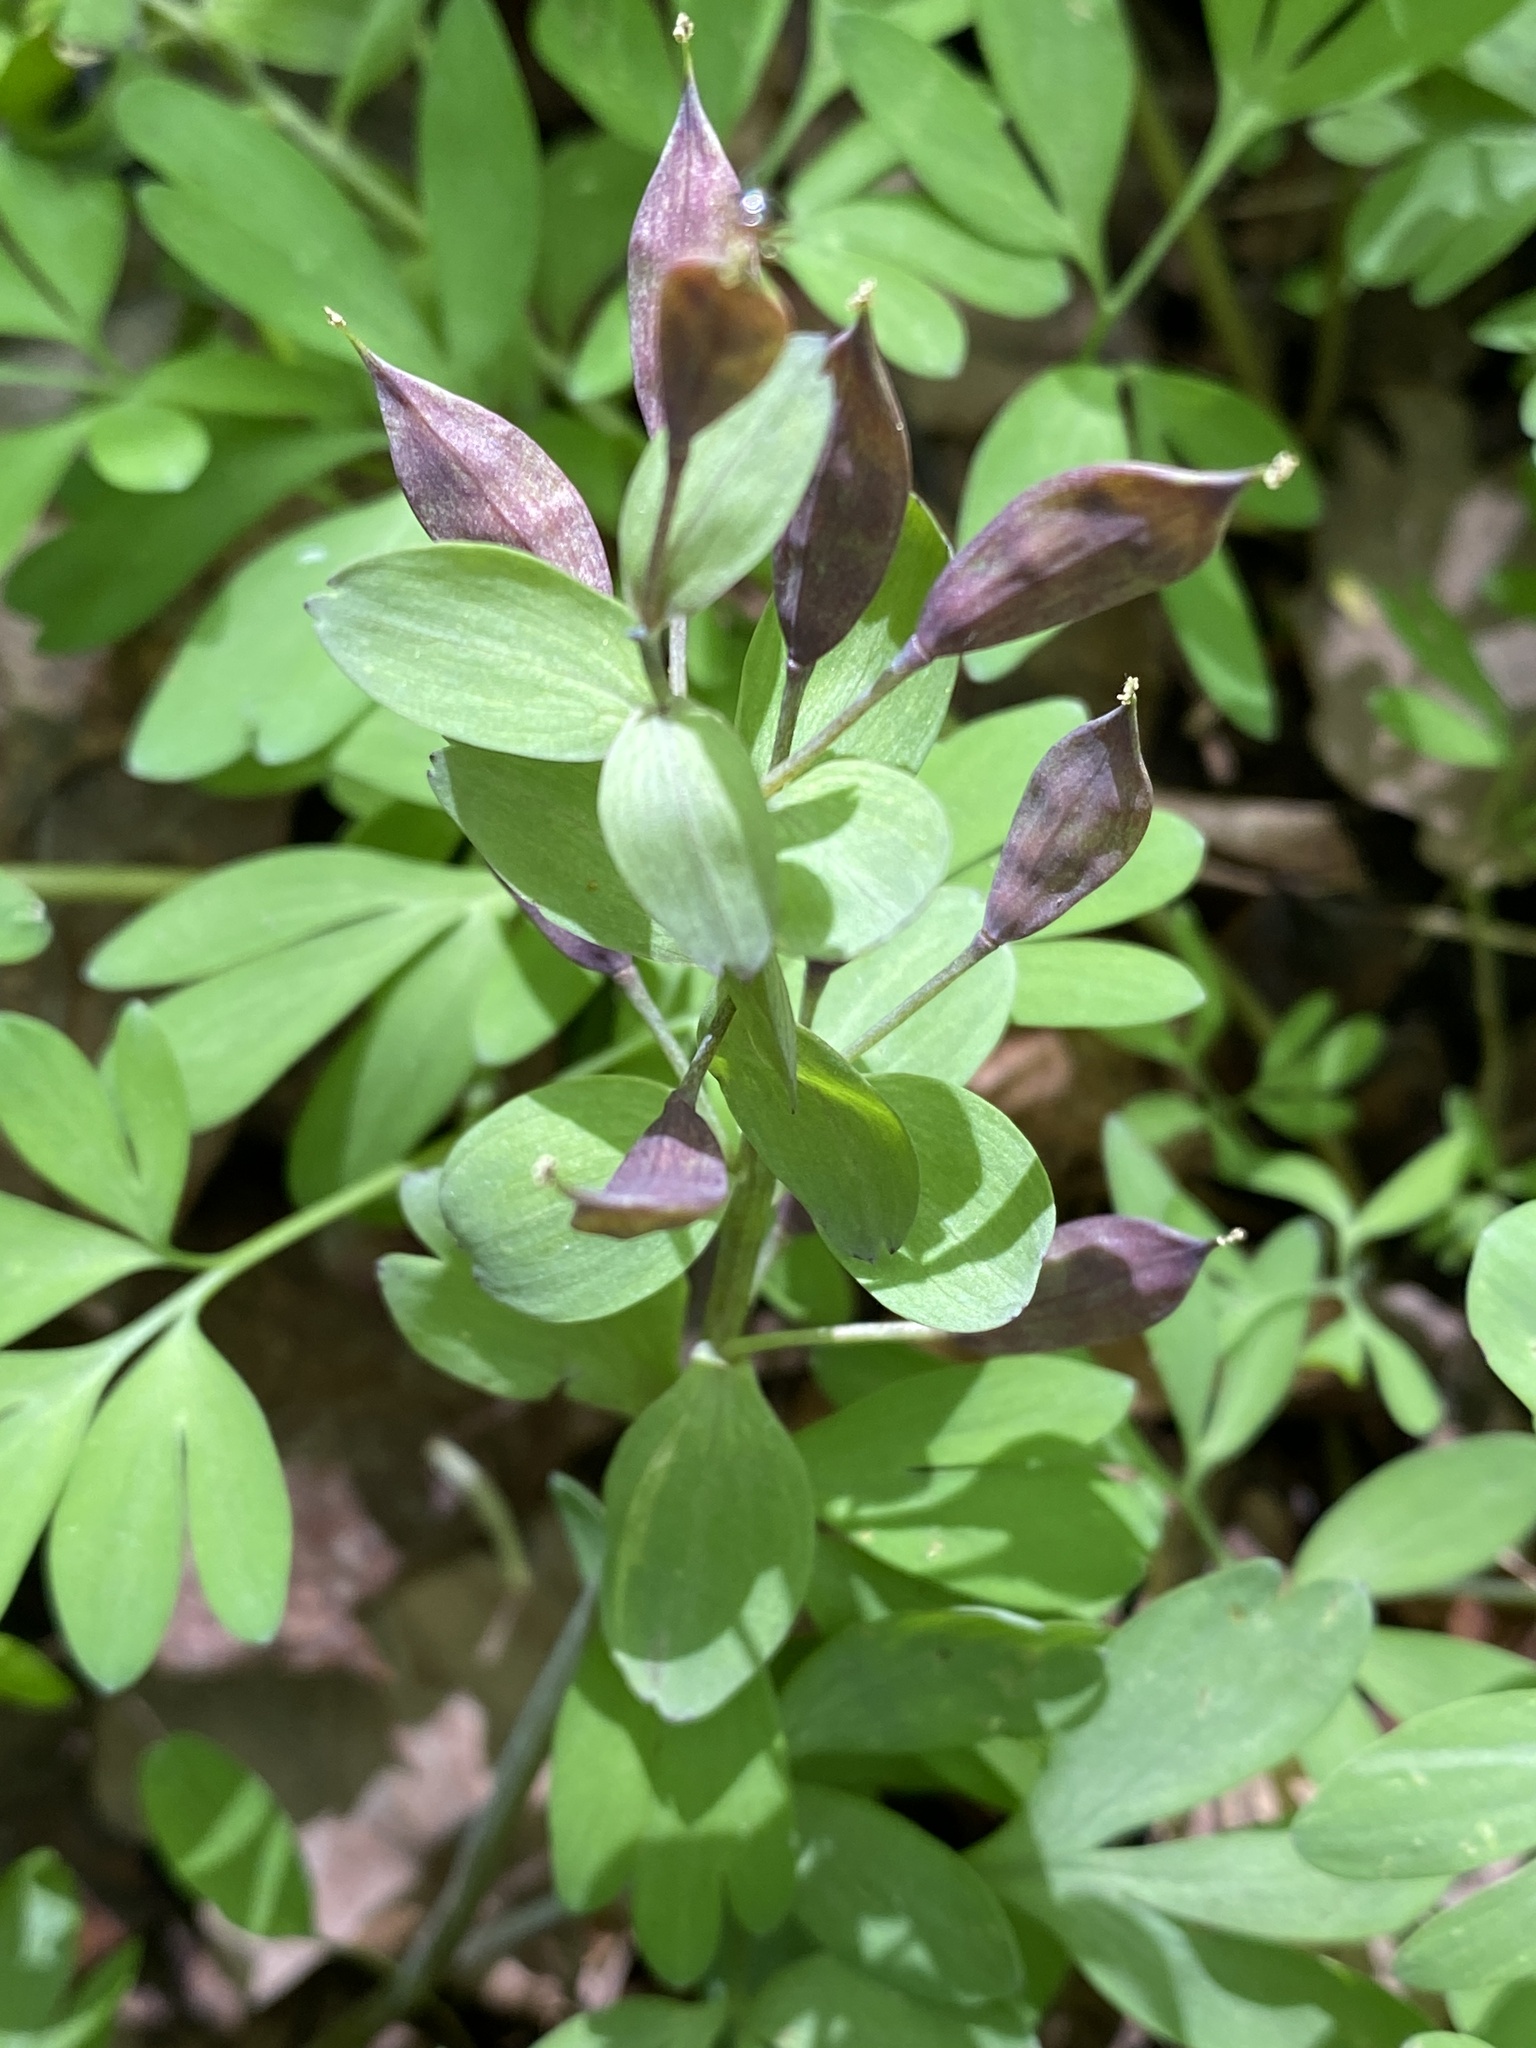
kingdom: Plantae
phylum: Tracheophyta
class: Magnoliopsida
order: Ranunculales
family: Papaveraceae
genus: Corydalis
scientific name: Corydalis solida
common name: Bird-in-a-bush
